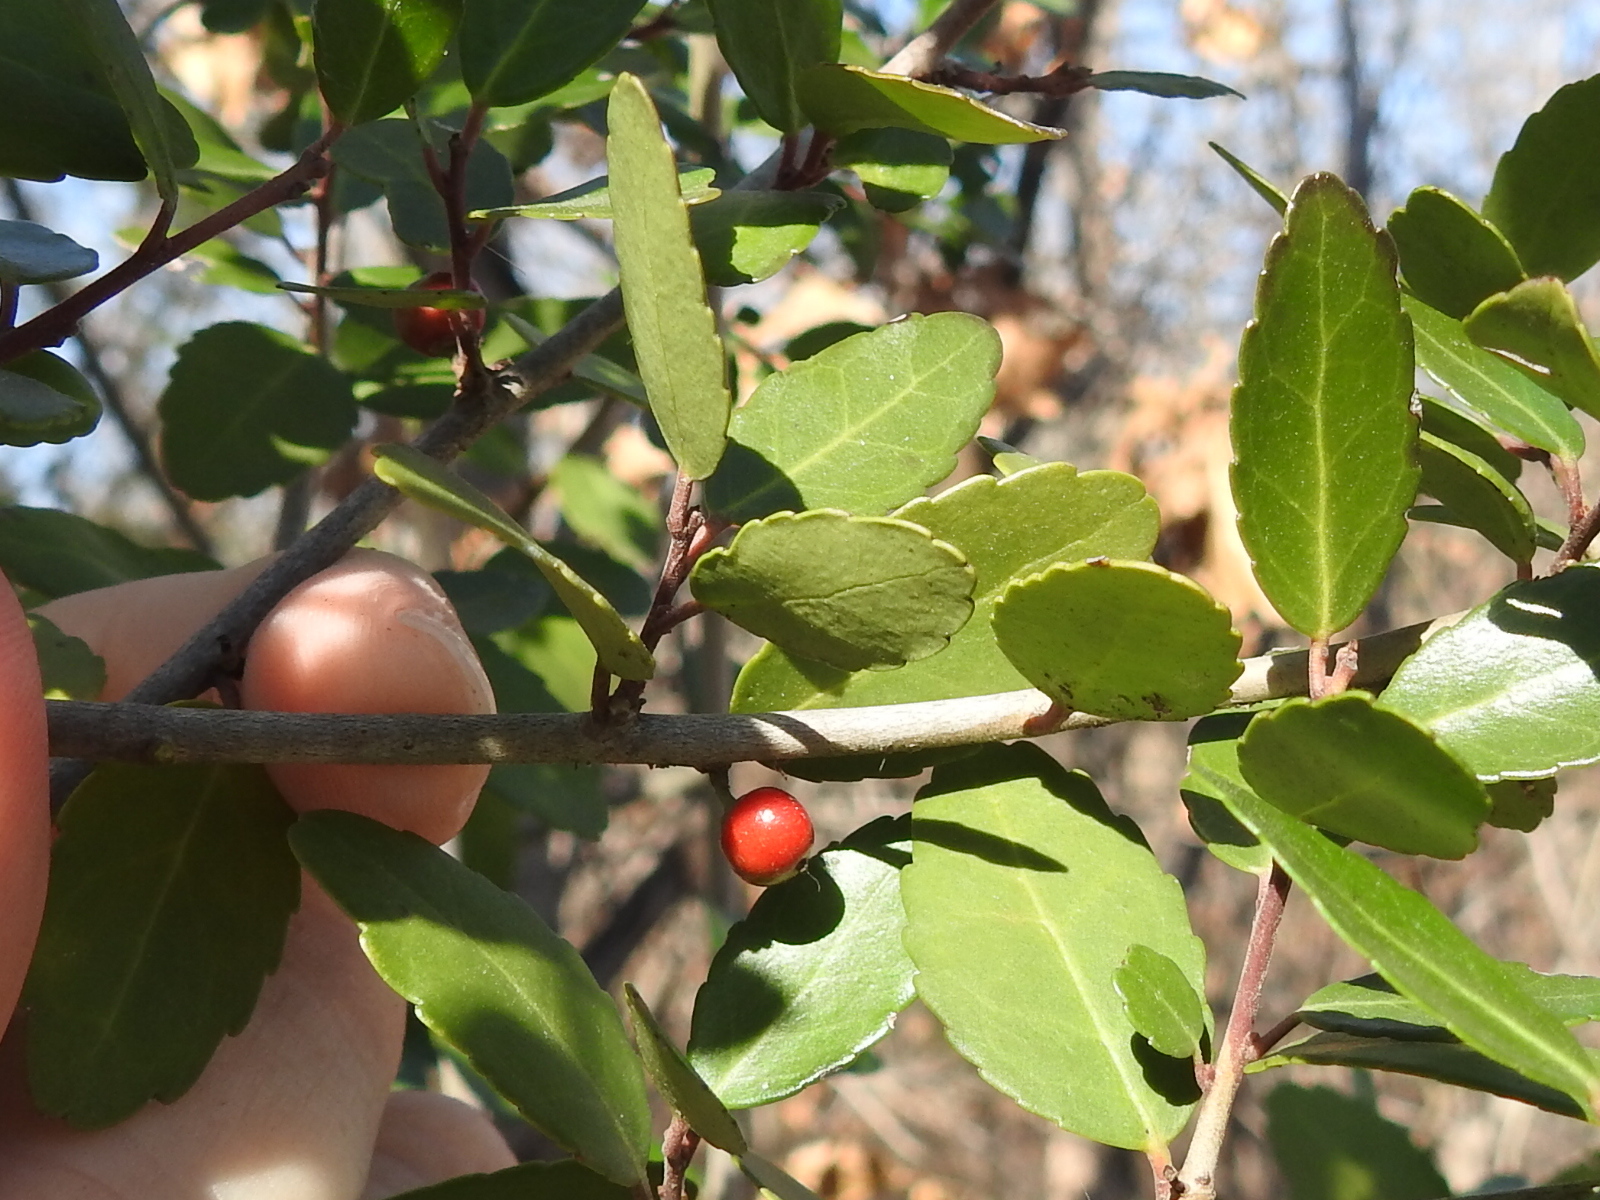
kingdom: Plantae
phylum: Tracheophyta
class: Magnoliopsida
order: Aquifoliales
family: Aquifoliaceae
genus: Ilex
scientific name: Ilex vomitoria
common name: Yaupon holly
